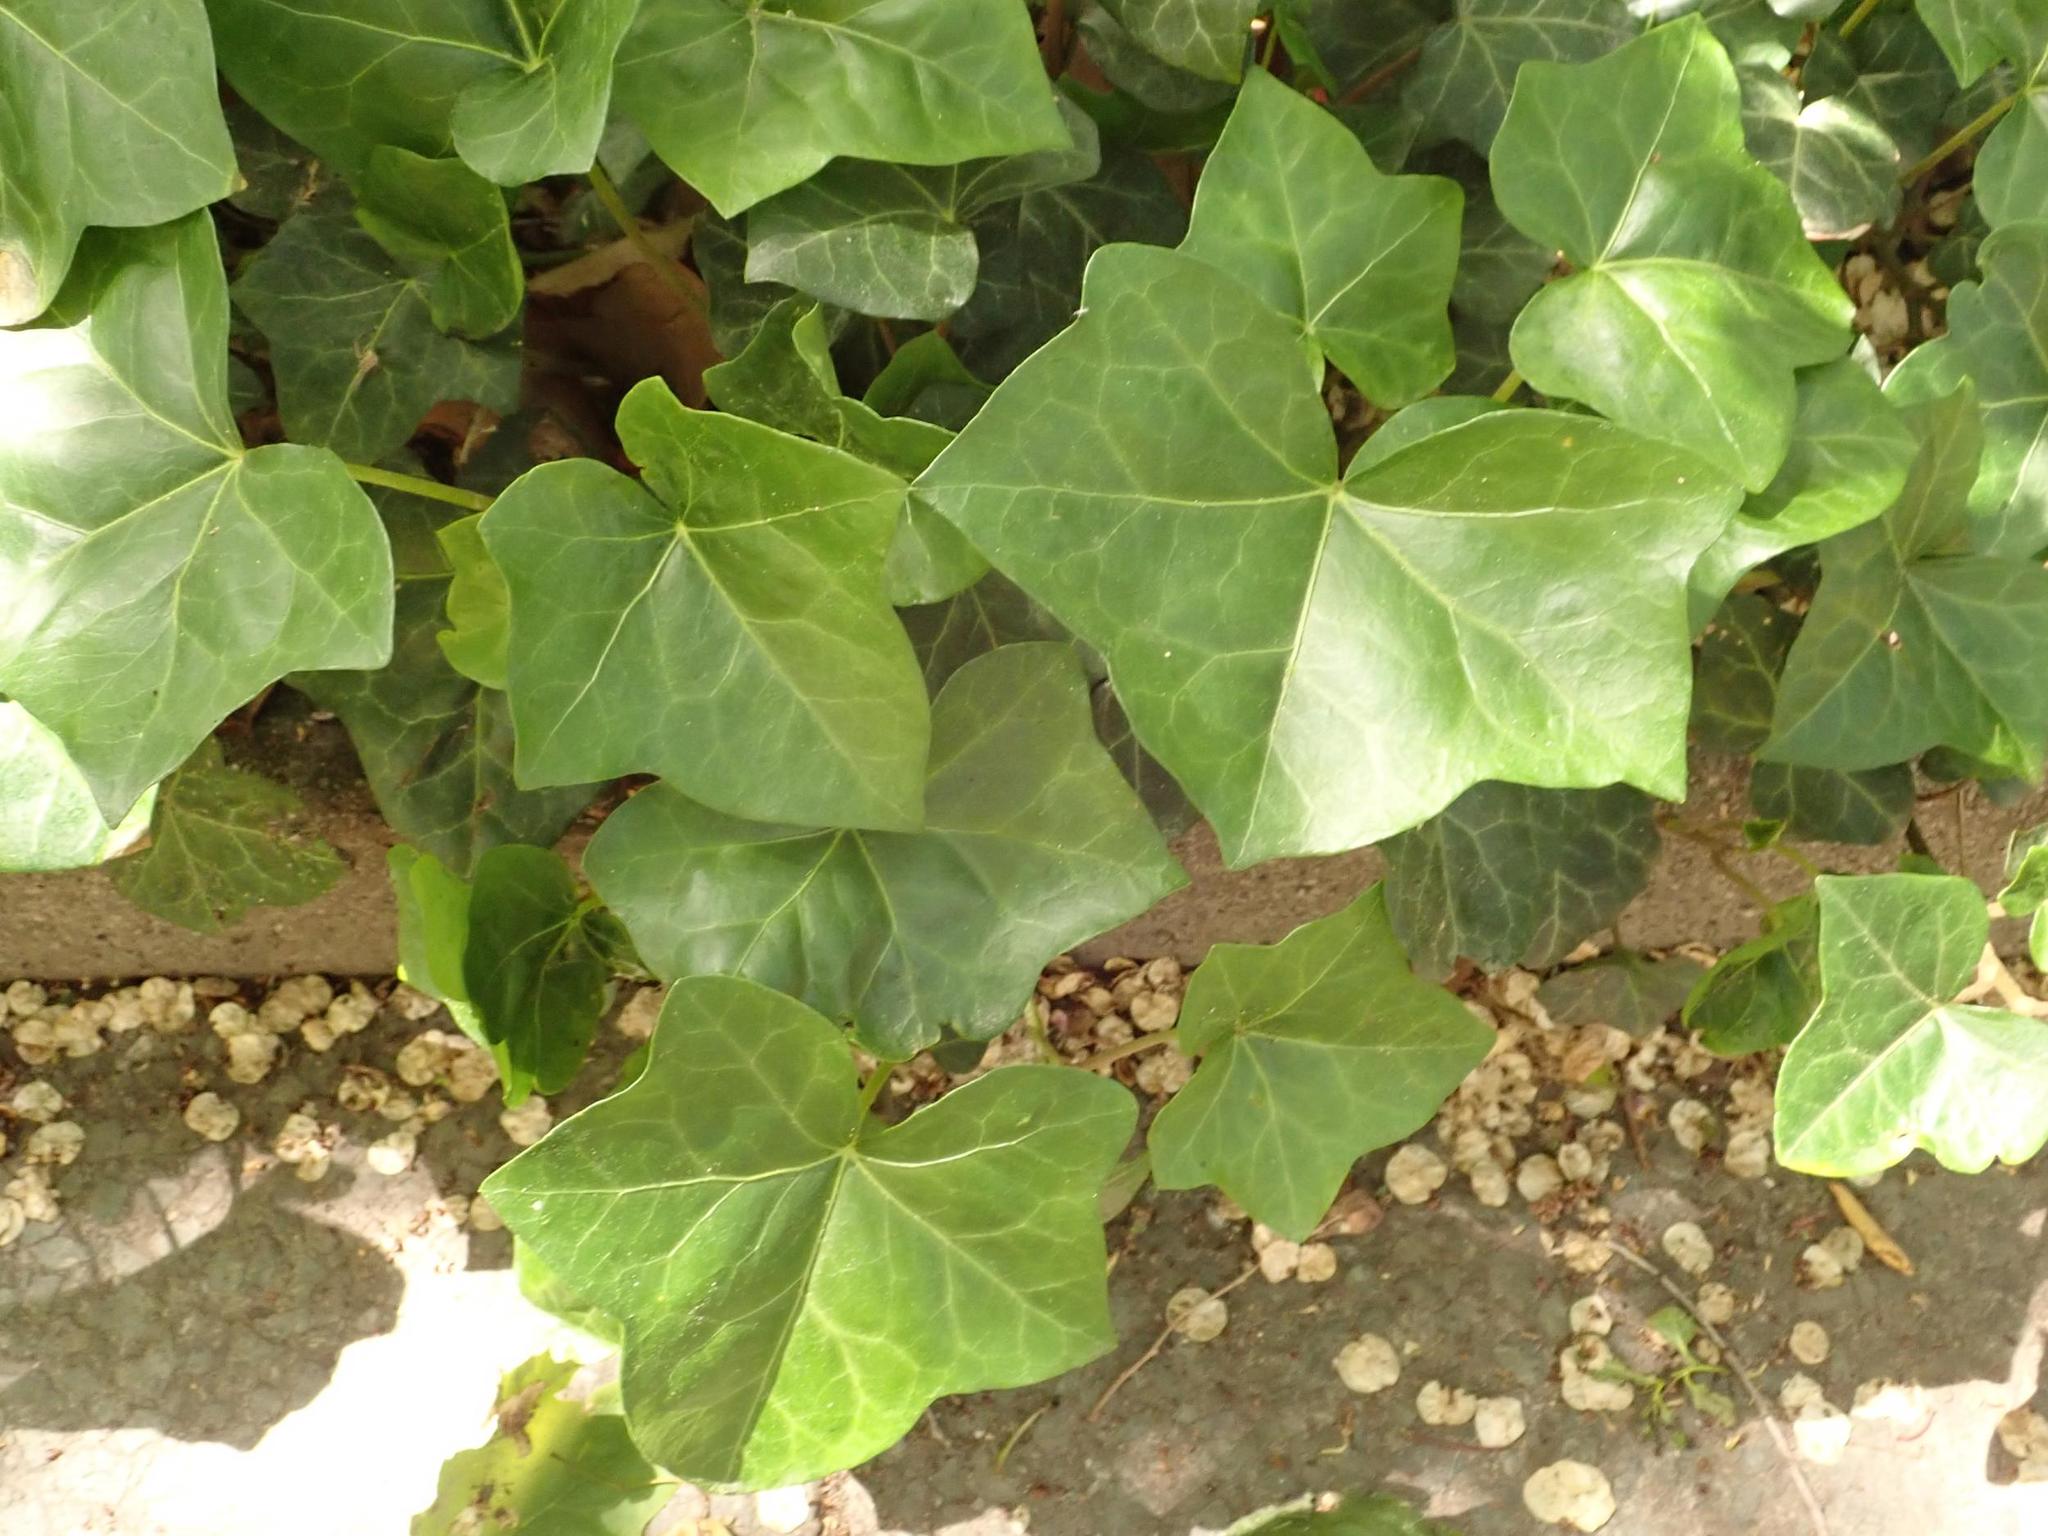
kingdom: Plantae
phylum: Tracheophyta
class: Magnoliopsida
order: Apiales
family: Araliaceae
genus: Hedera
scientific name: Hedera helix
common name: Ivy
